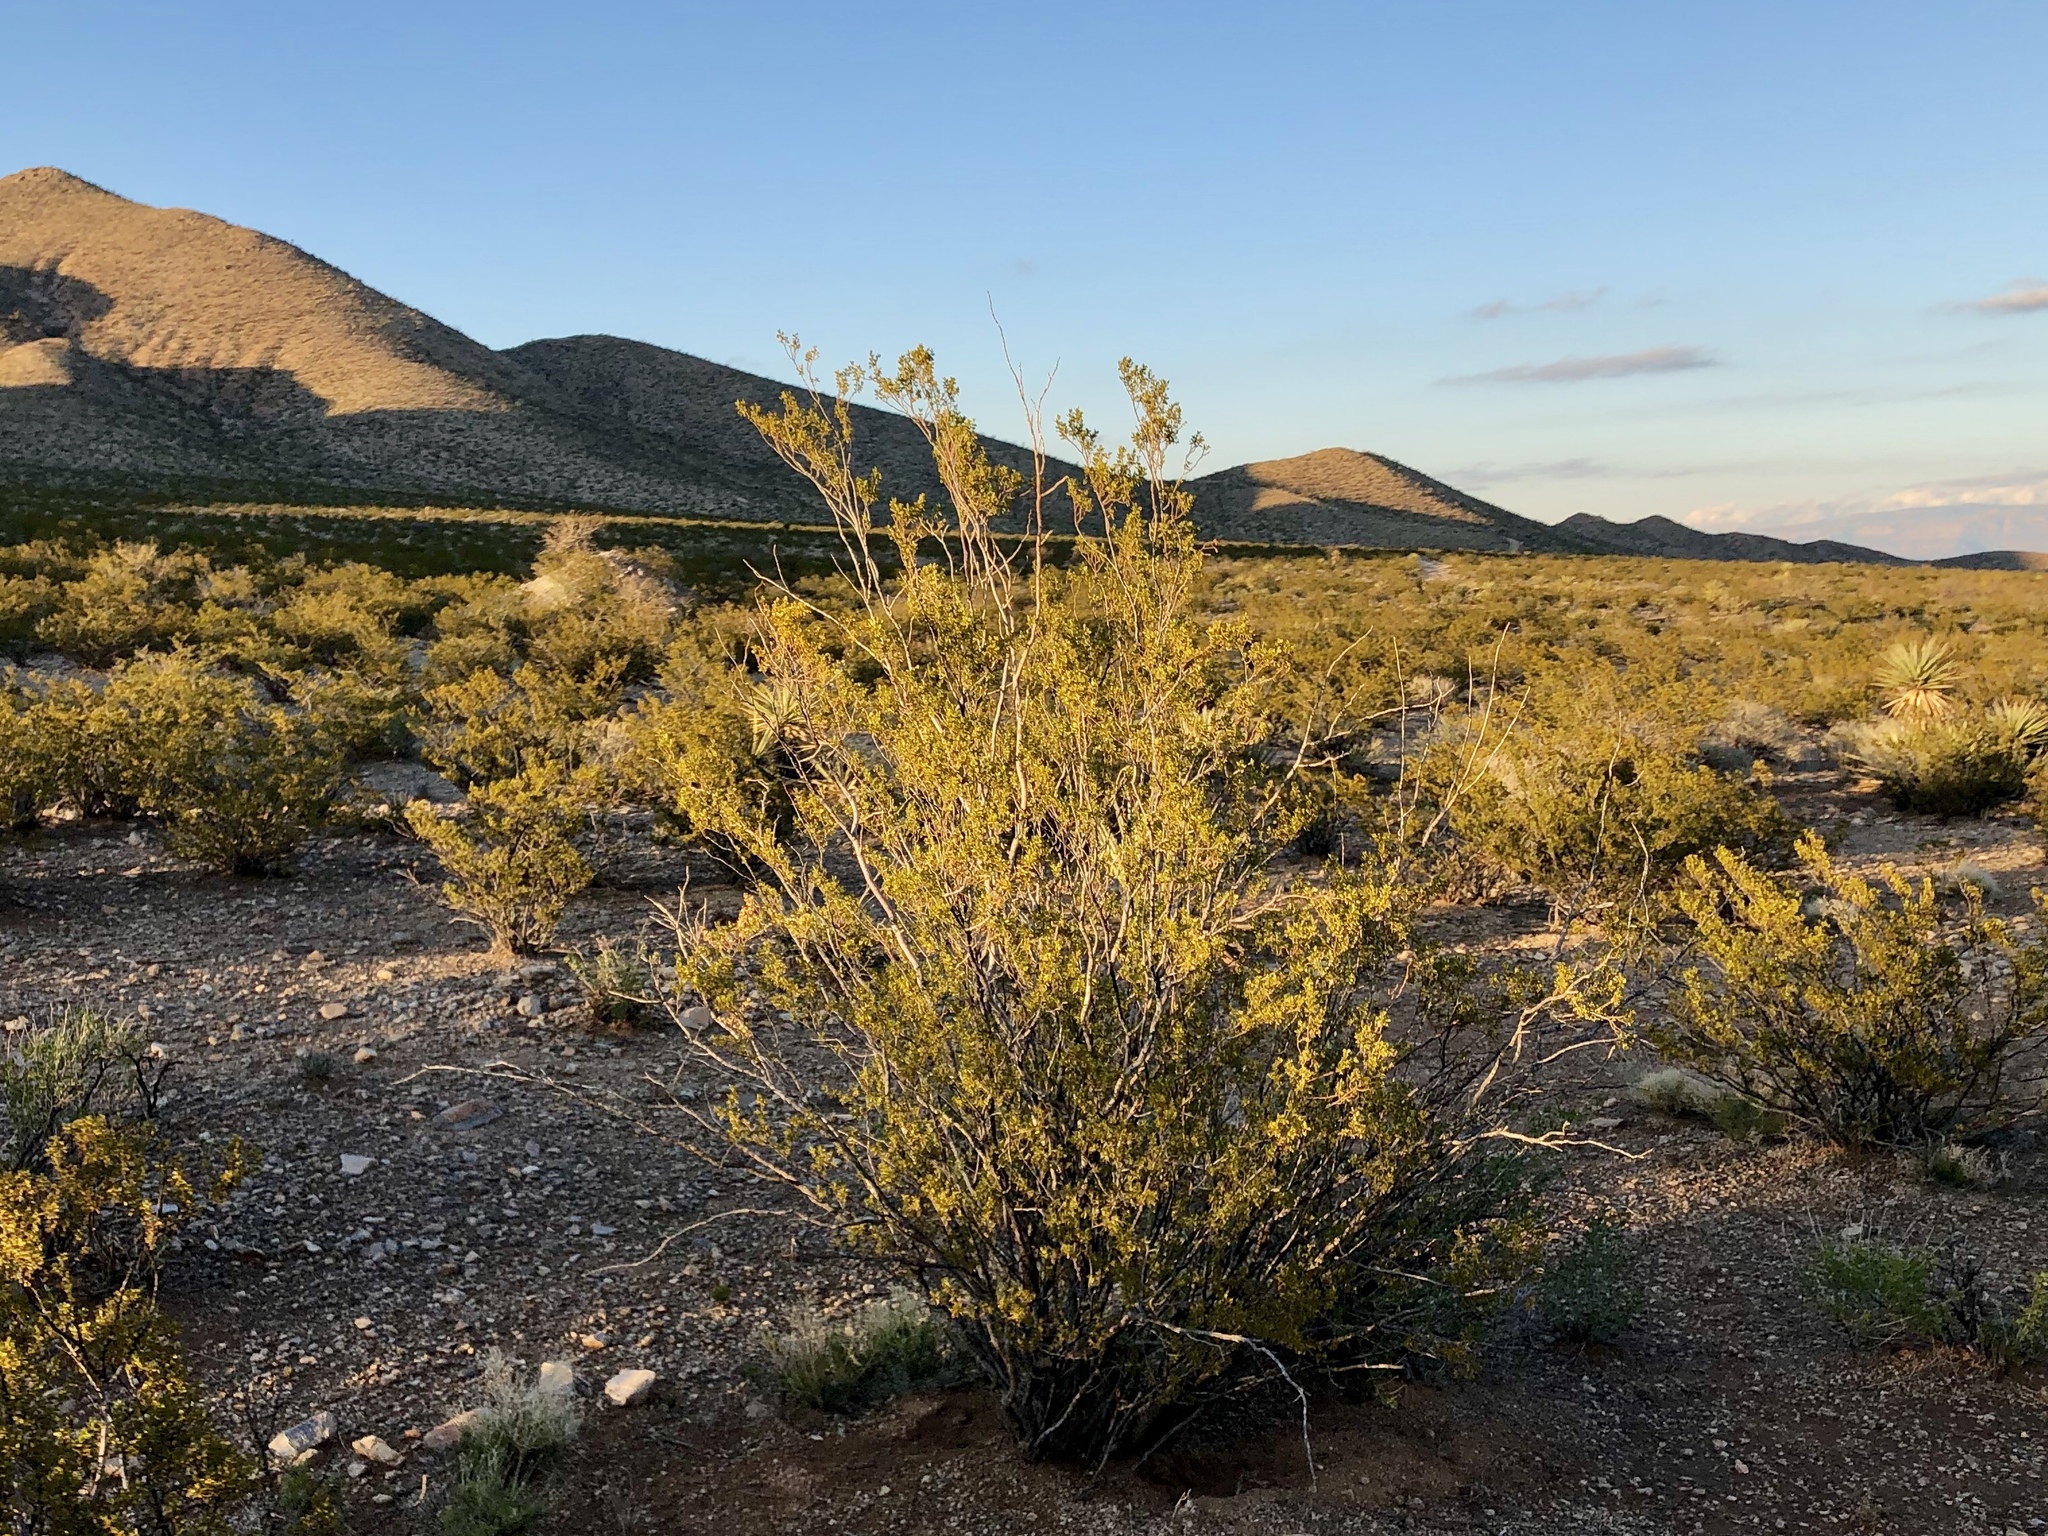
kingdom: Plantae
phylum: Tracheophyta
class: Magnoliopsida
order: Zygophyllales
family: Zygophyllaceae
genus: Larrea
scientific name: Larrea tridentata
